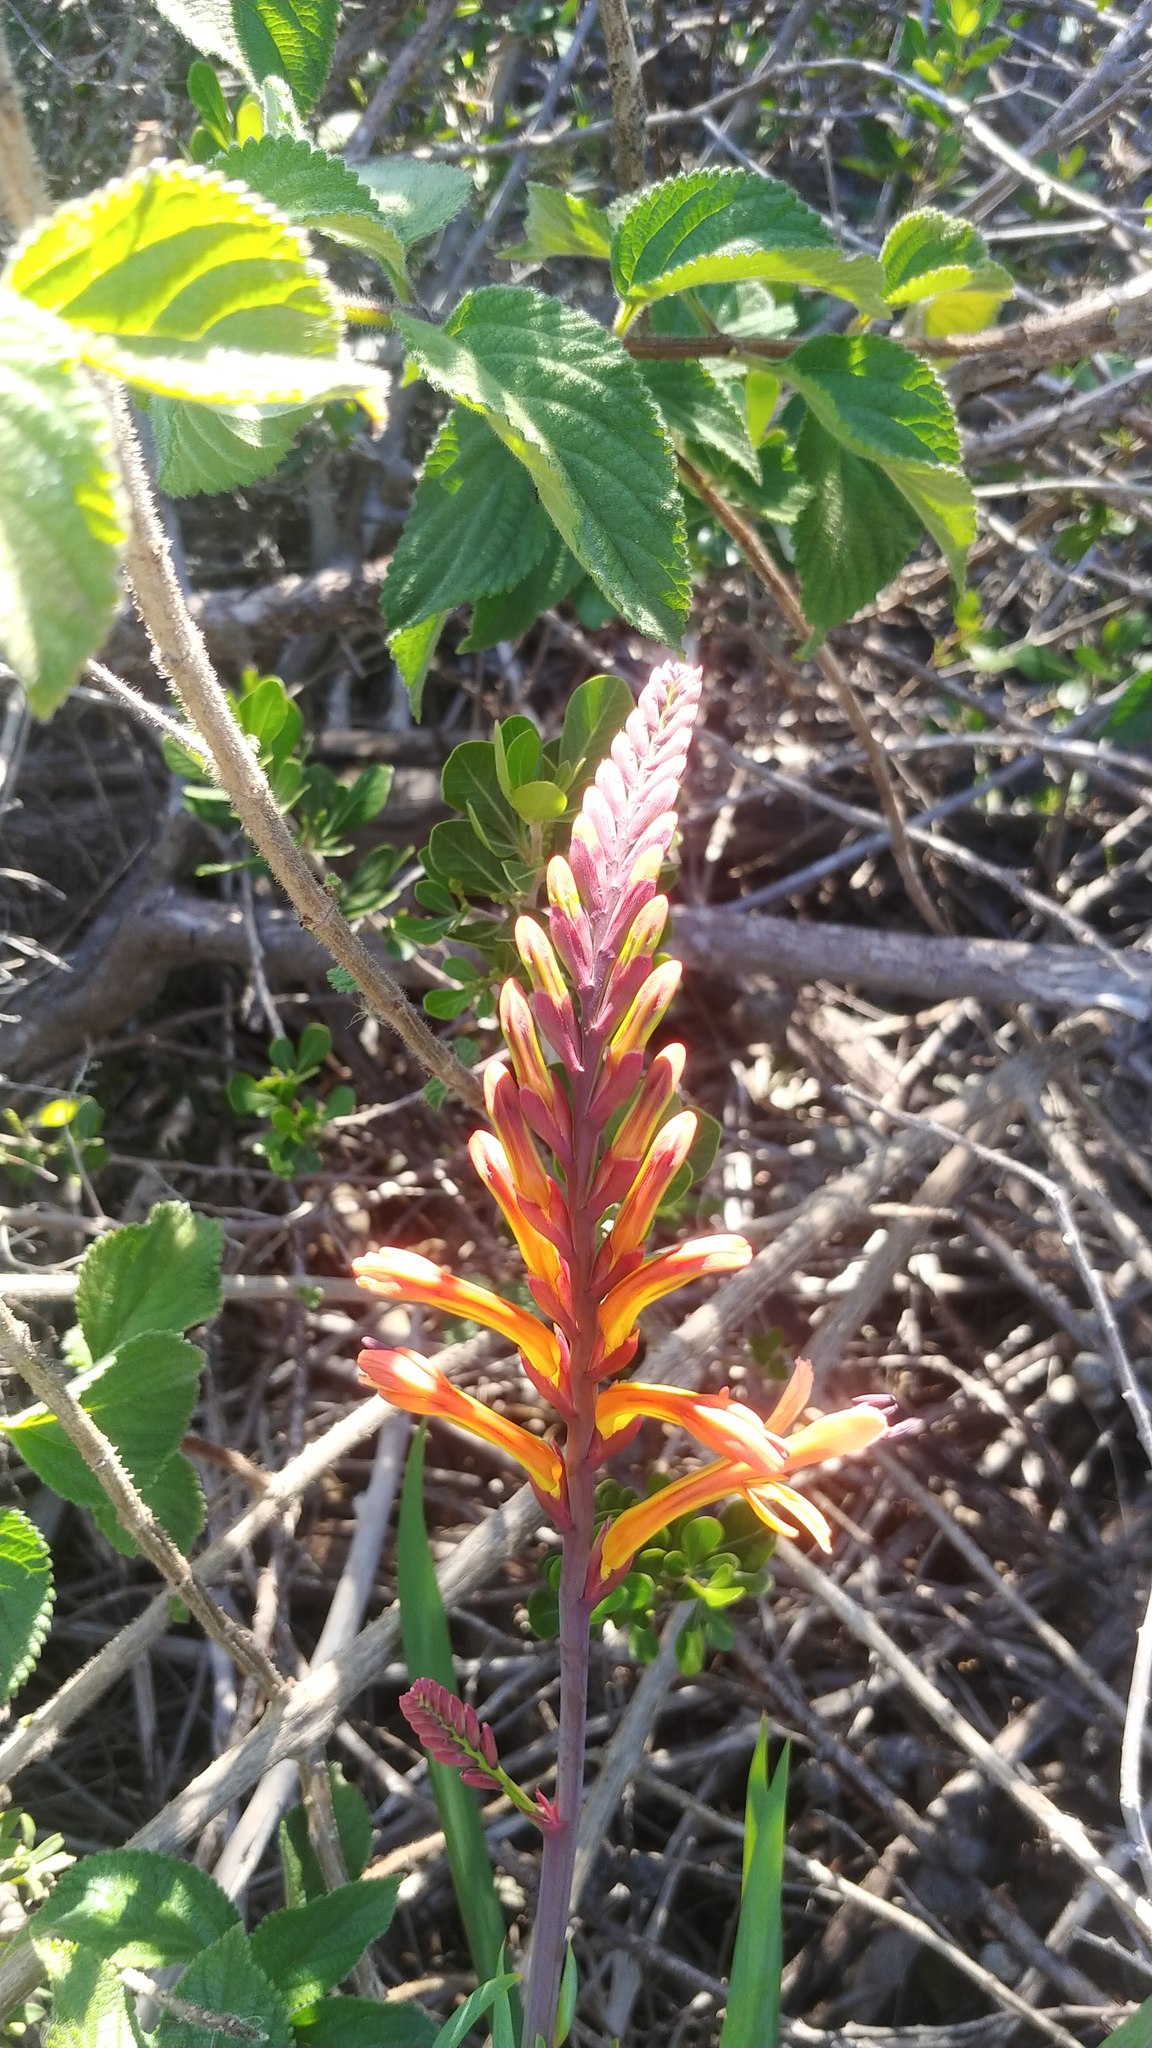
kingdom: Plantae
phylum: Tracheophyta
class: Liliopsida
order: Asparagales
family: Iridaceae
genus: Chasmanthe
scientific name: Chasmanthe aethiopica
